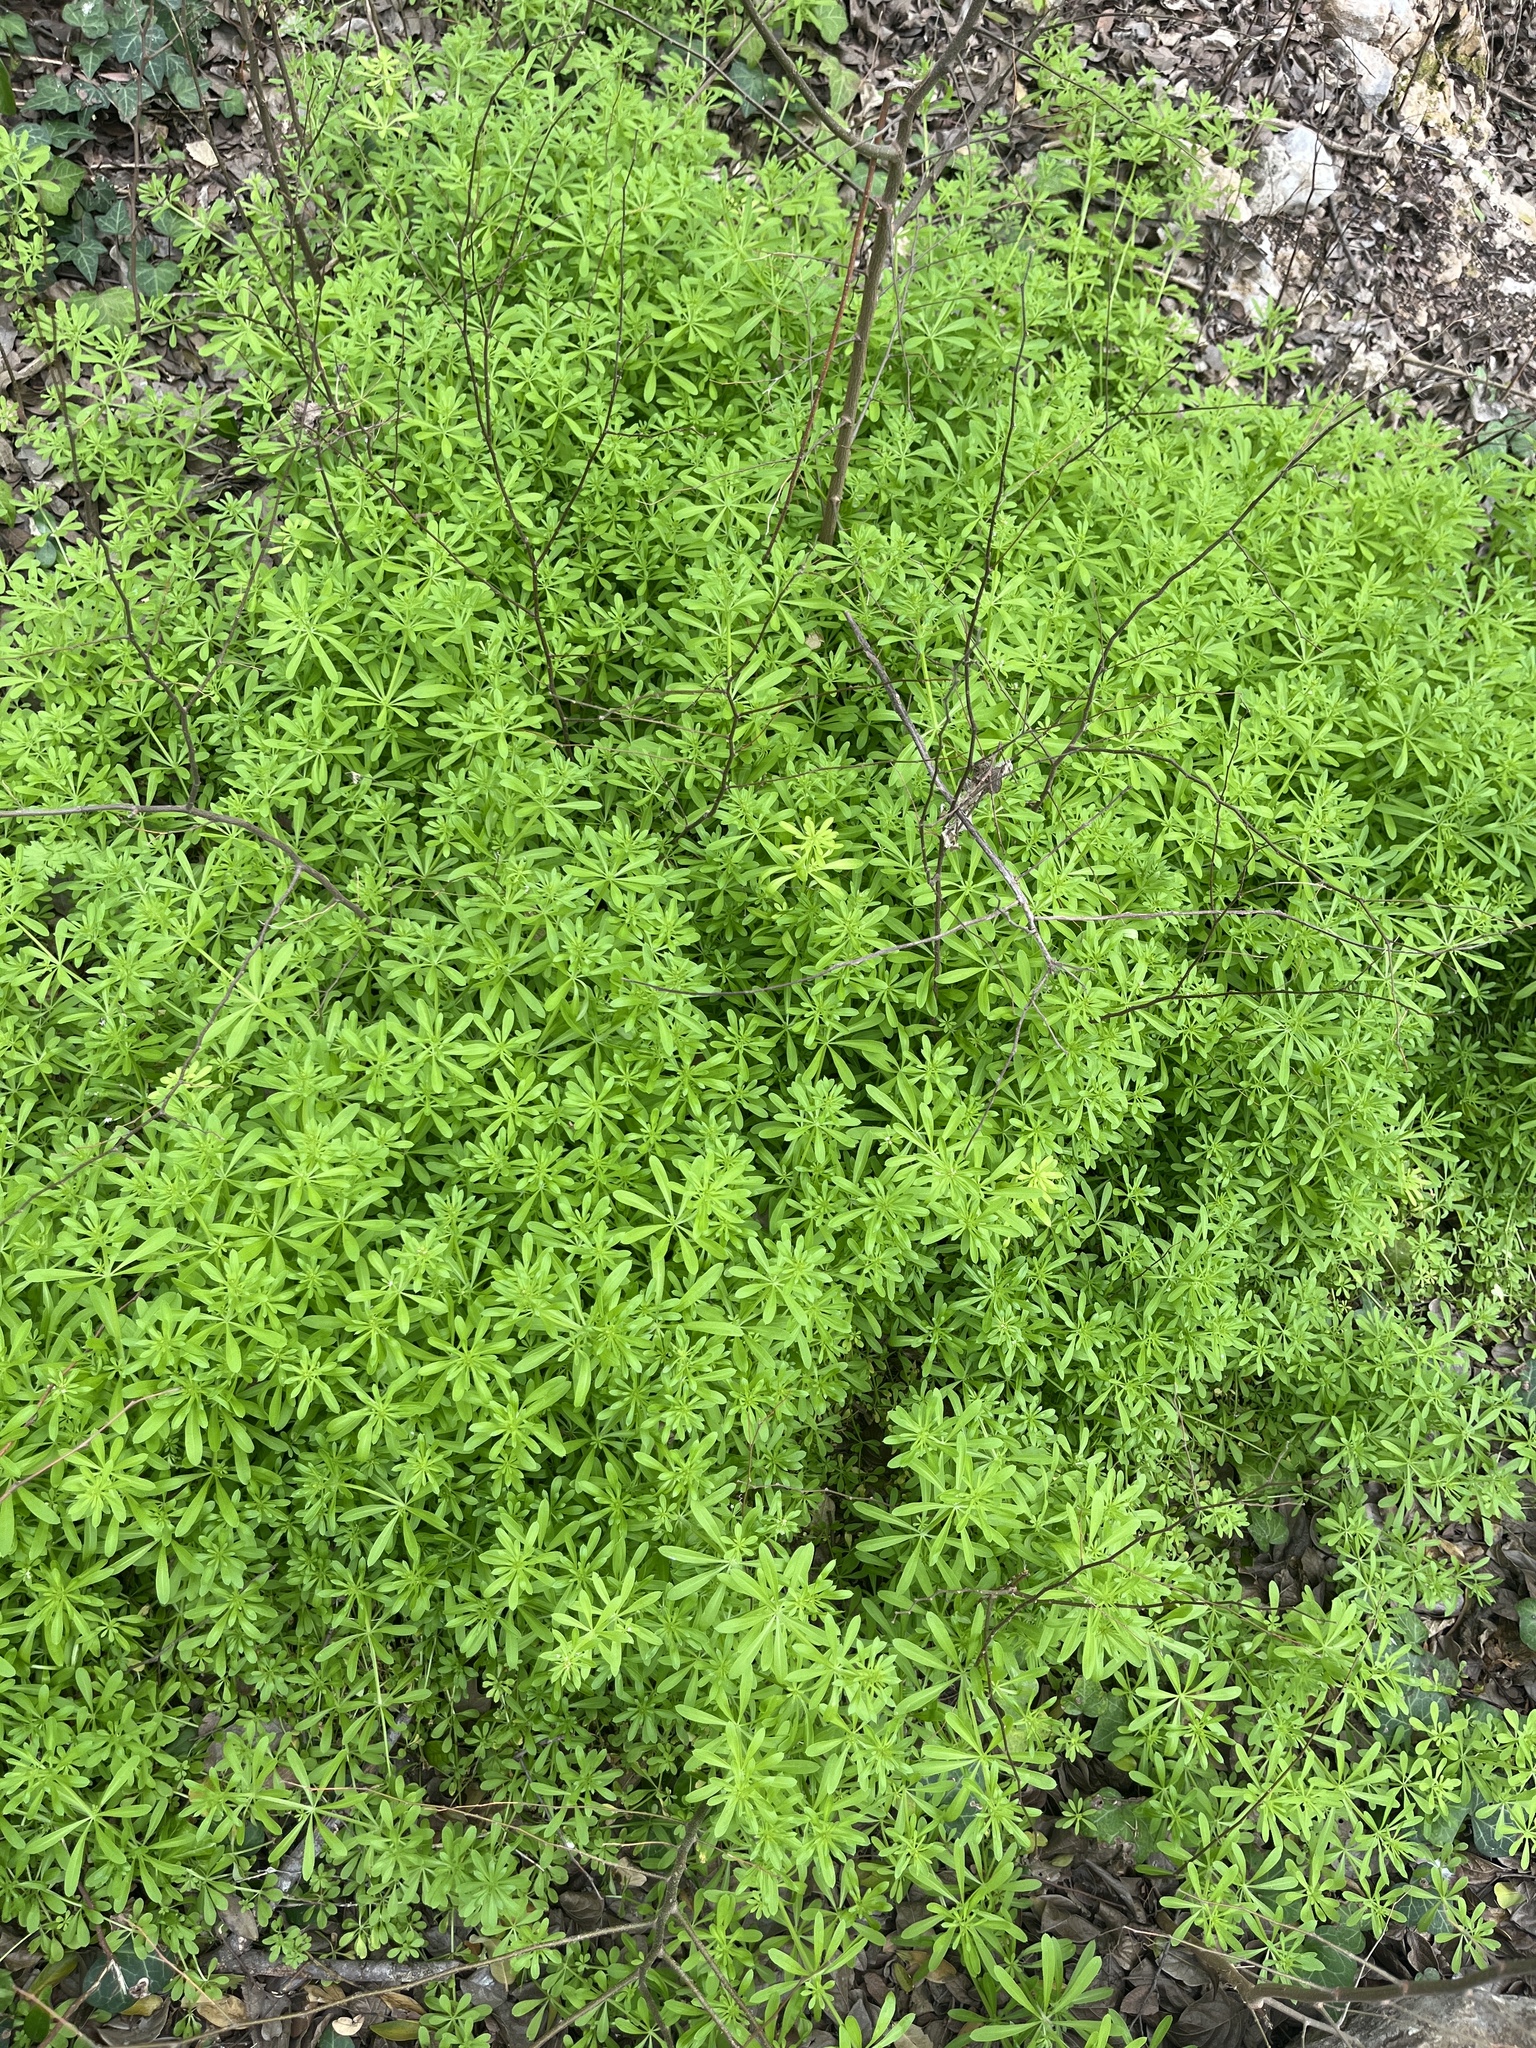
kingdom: Plantae
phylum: Tracheophyta
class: Magnoliopsida
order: Gentianales
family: Rubiaceae
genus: Galium
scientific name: Galium aparine
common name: Cleavers
